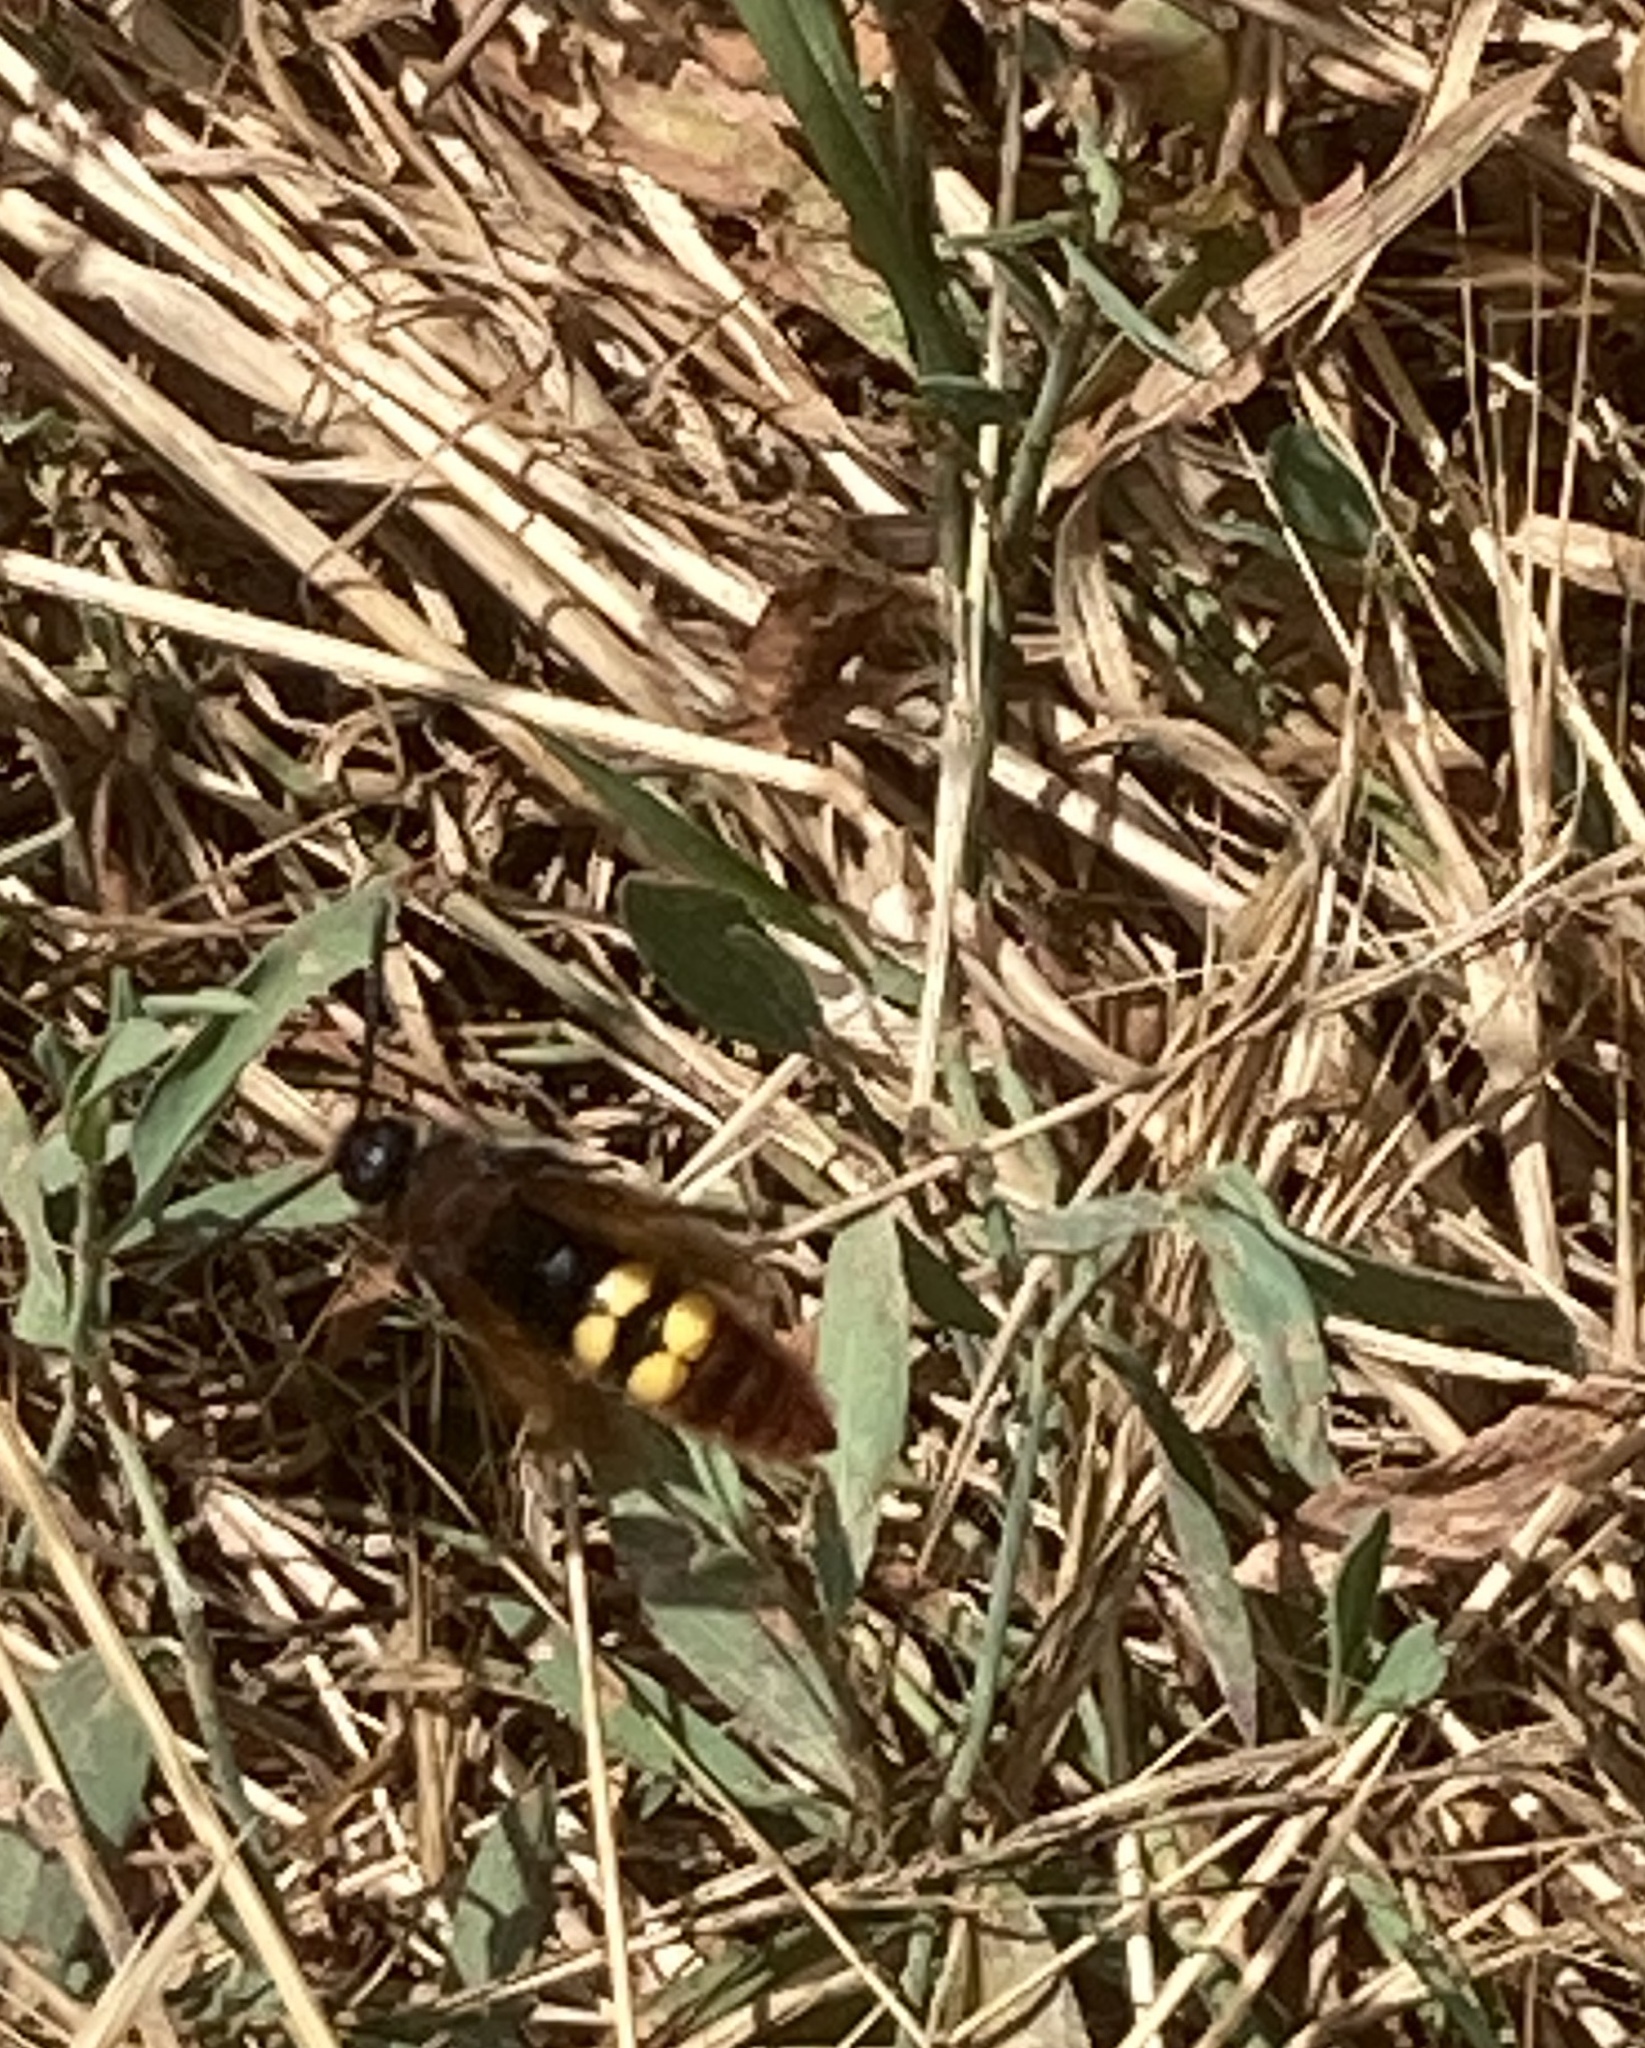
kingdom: Animalia
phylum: Arthropoda
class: Insecta
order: Hymenoptera
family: Scoliidae
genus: Megascolia
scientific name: Megascolia maculata
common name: Mammoth wasp
